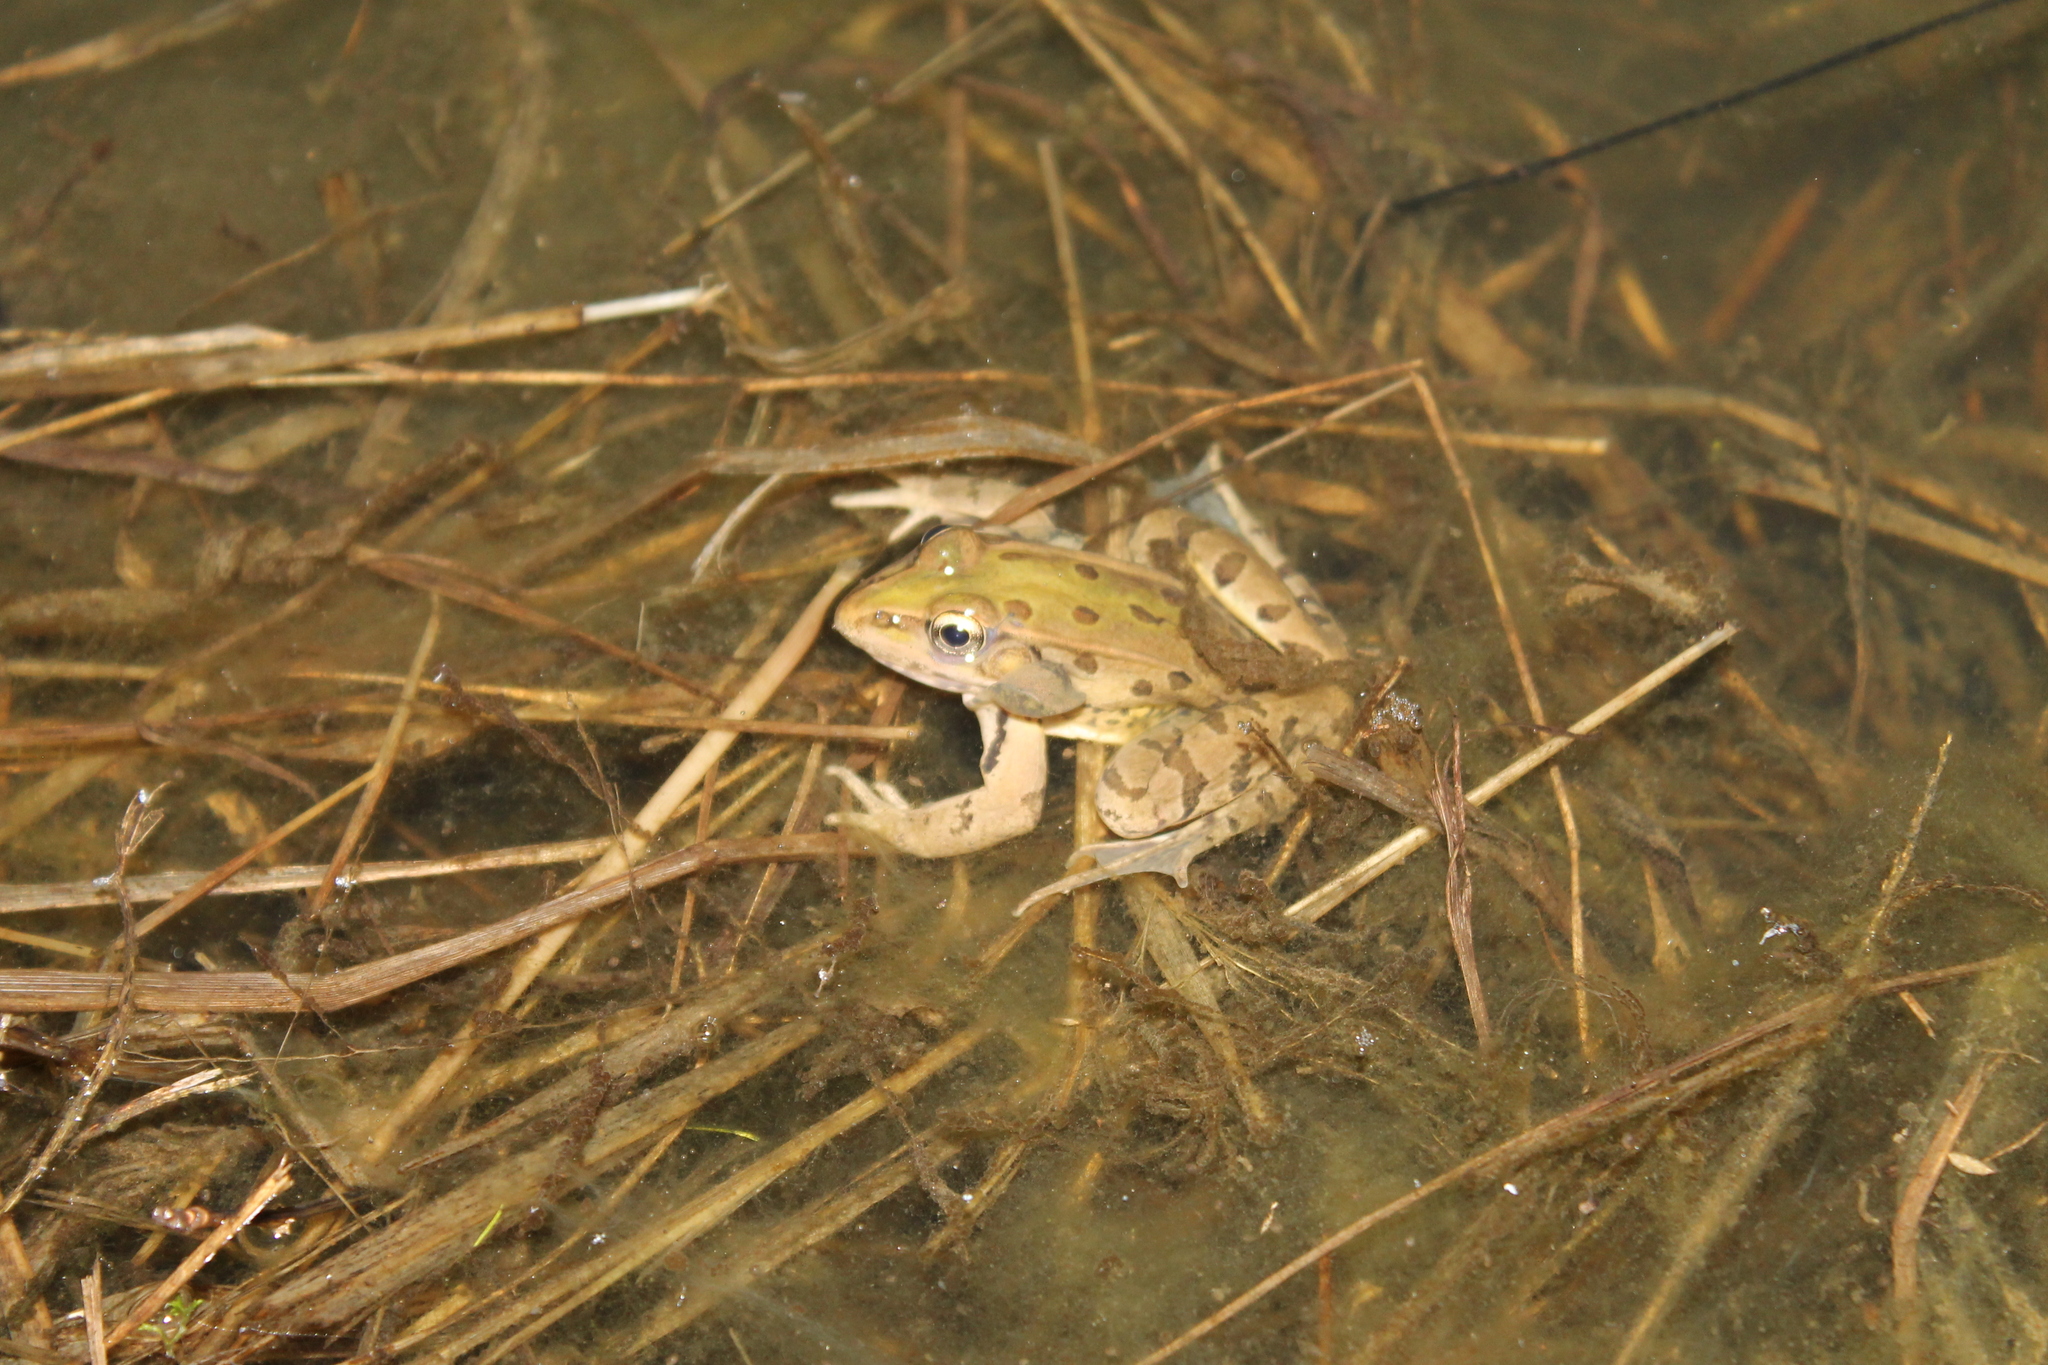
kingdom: Animalia
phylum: Chordata
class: Amphibia
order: Anura
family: Ranidae
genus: Lithobates
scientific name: Lithobates sphenocephalus
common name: Southern leopard frog
